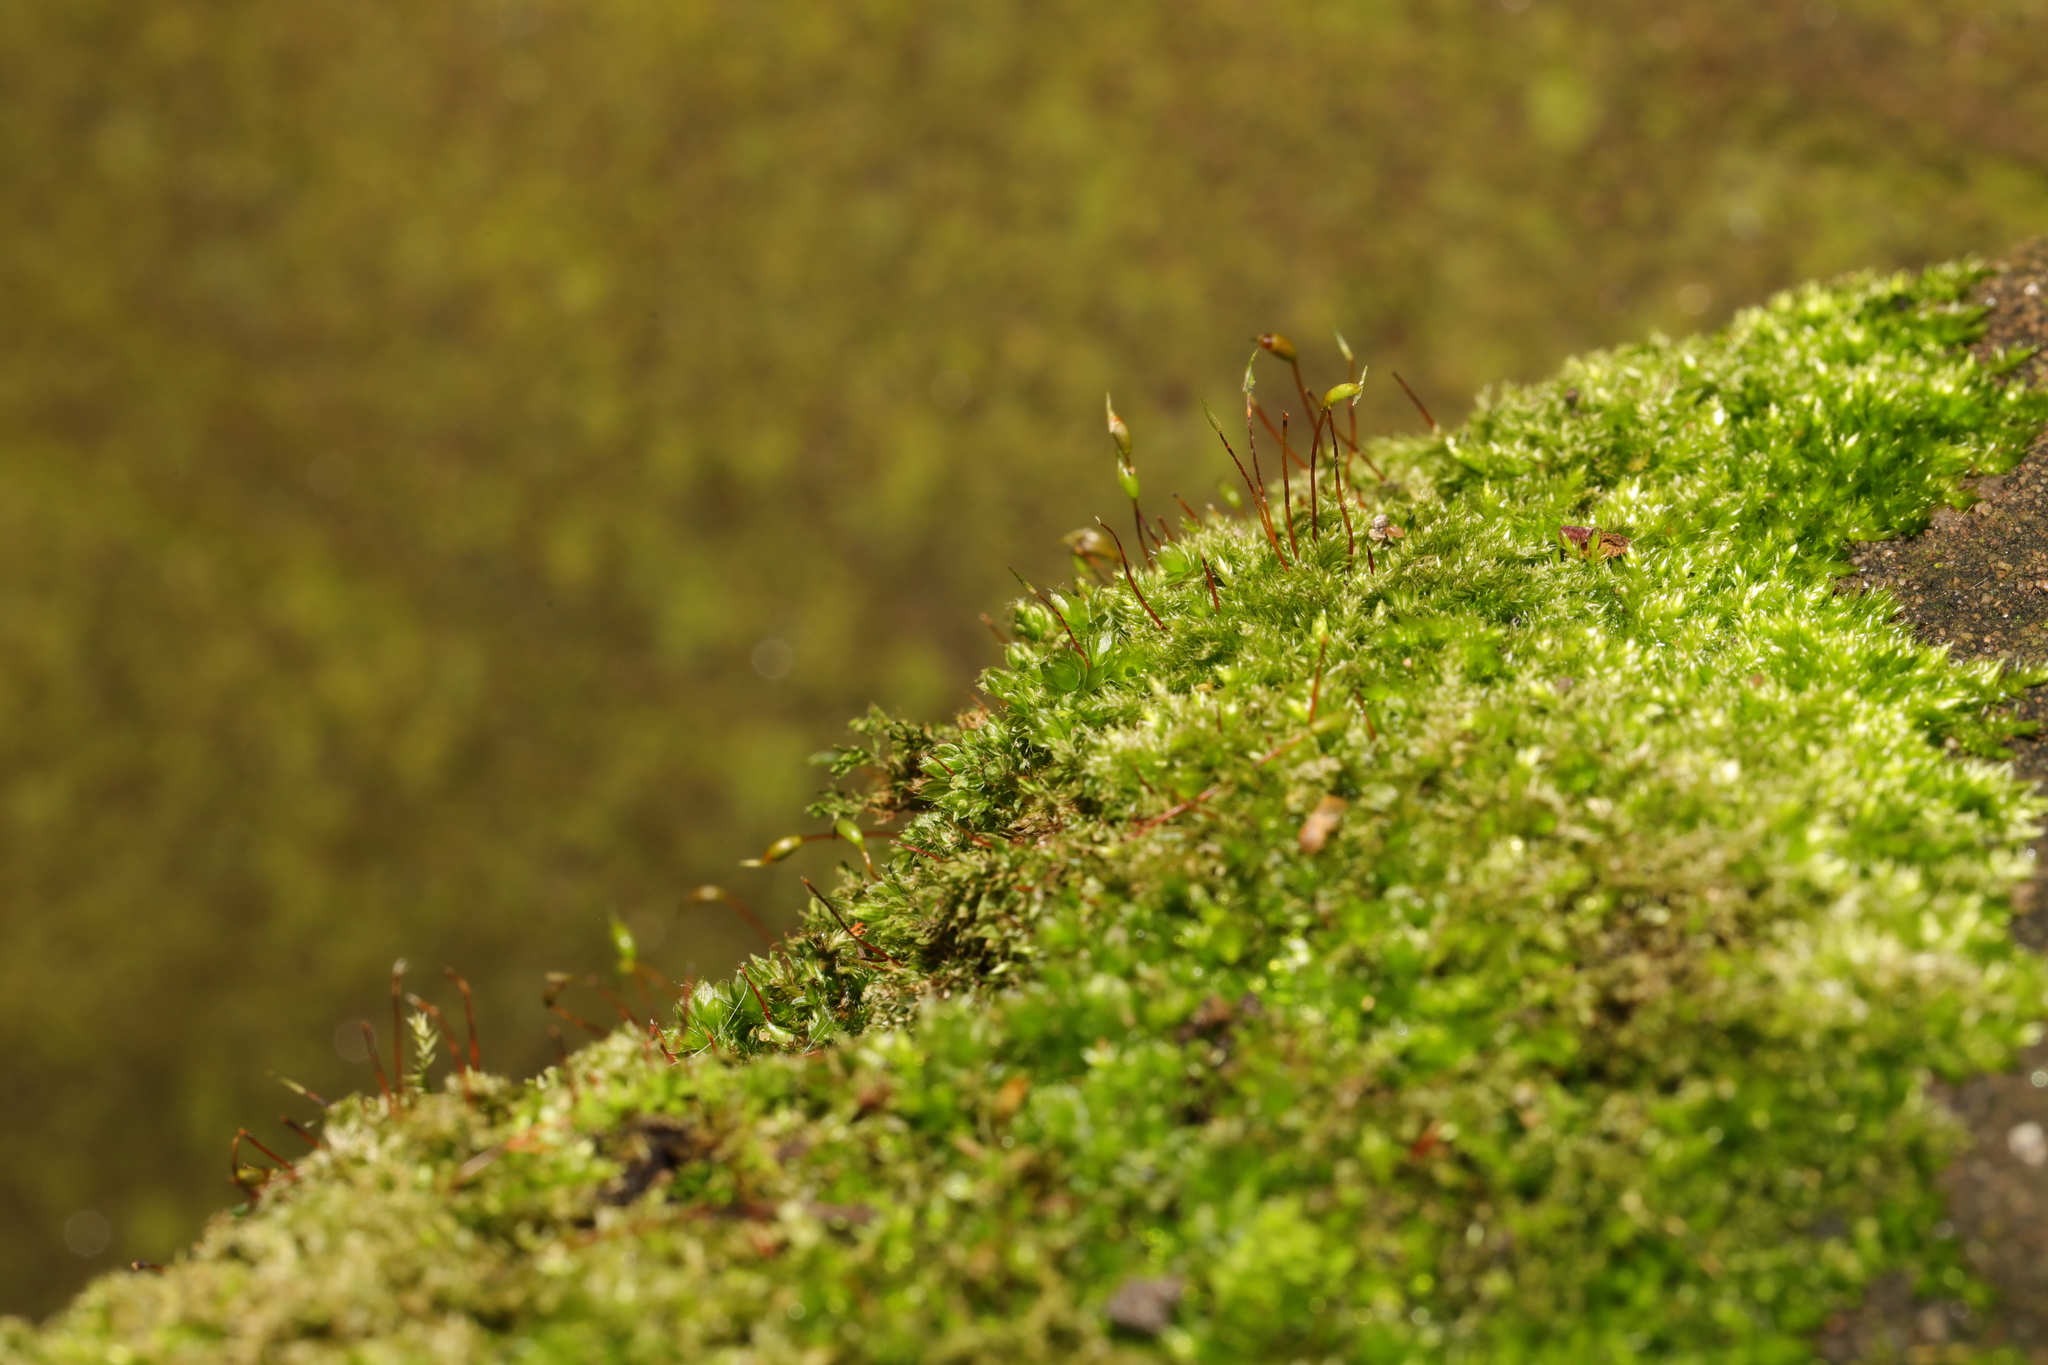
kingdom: Plantae
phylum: Bryophyta
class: Bryopsida
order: Hypnales
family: Brachytheciaceae
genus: Rhynchostegium
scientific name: Rhynchostegium confertum
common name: Clustered feather-moss
